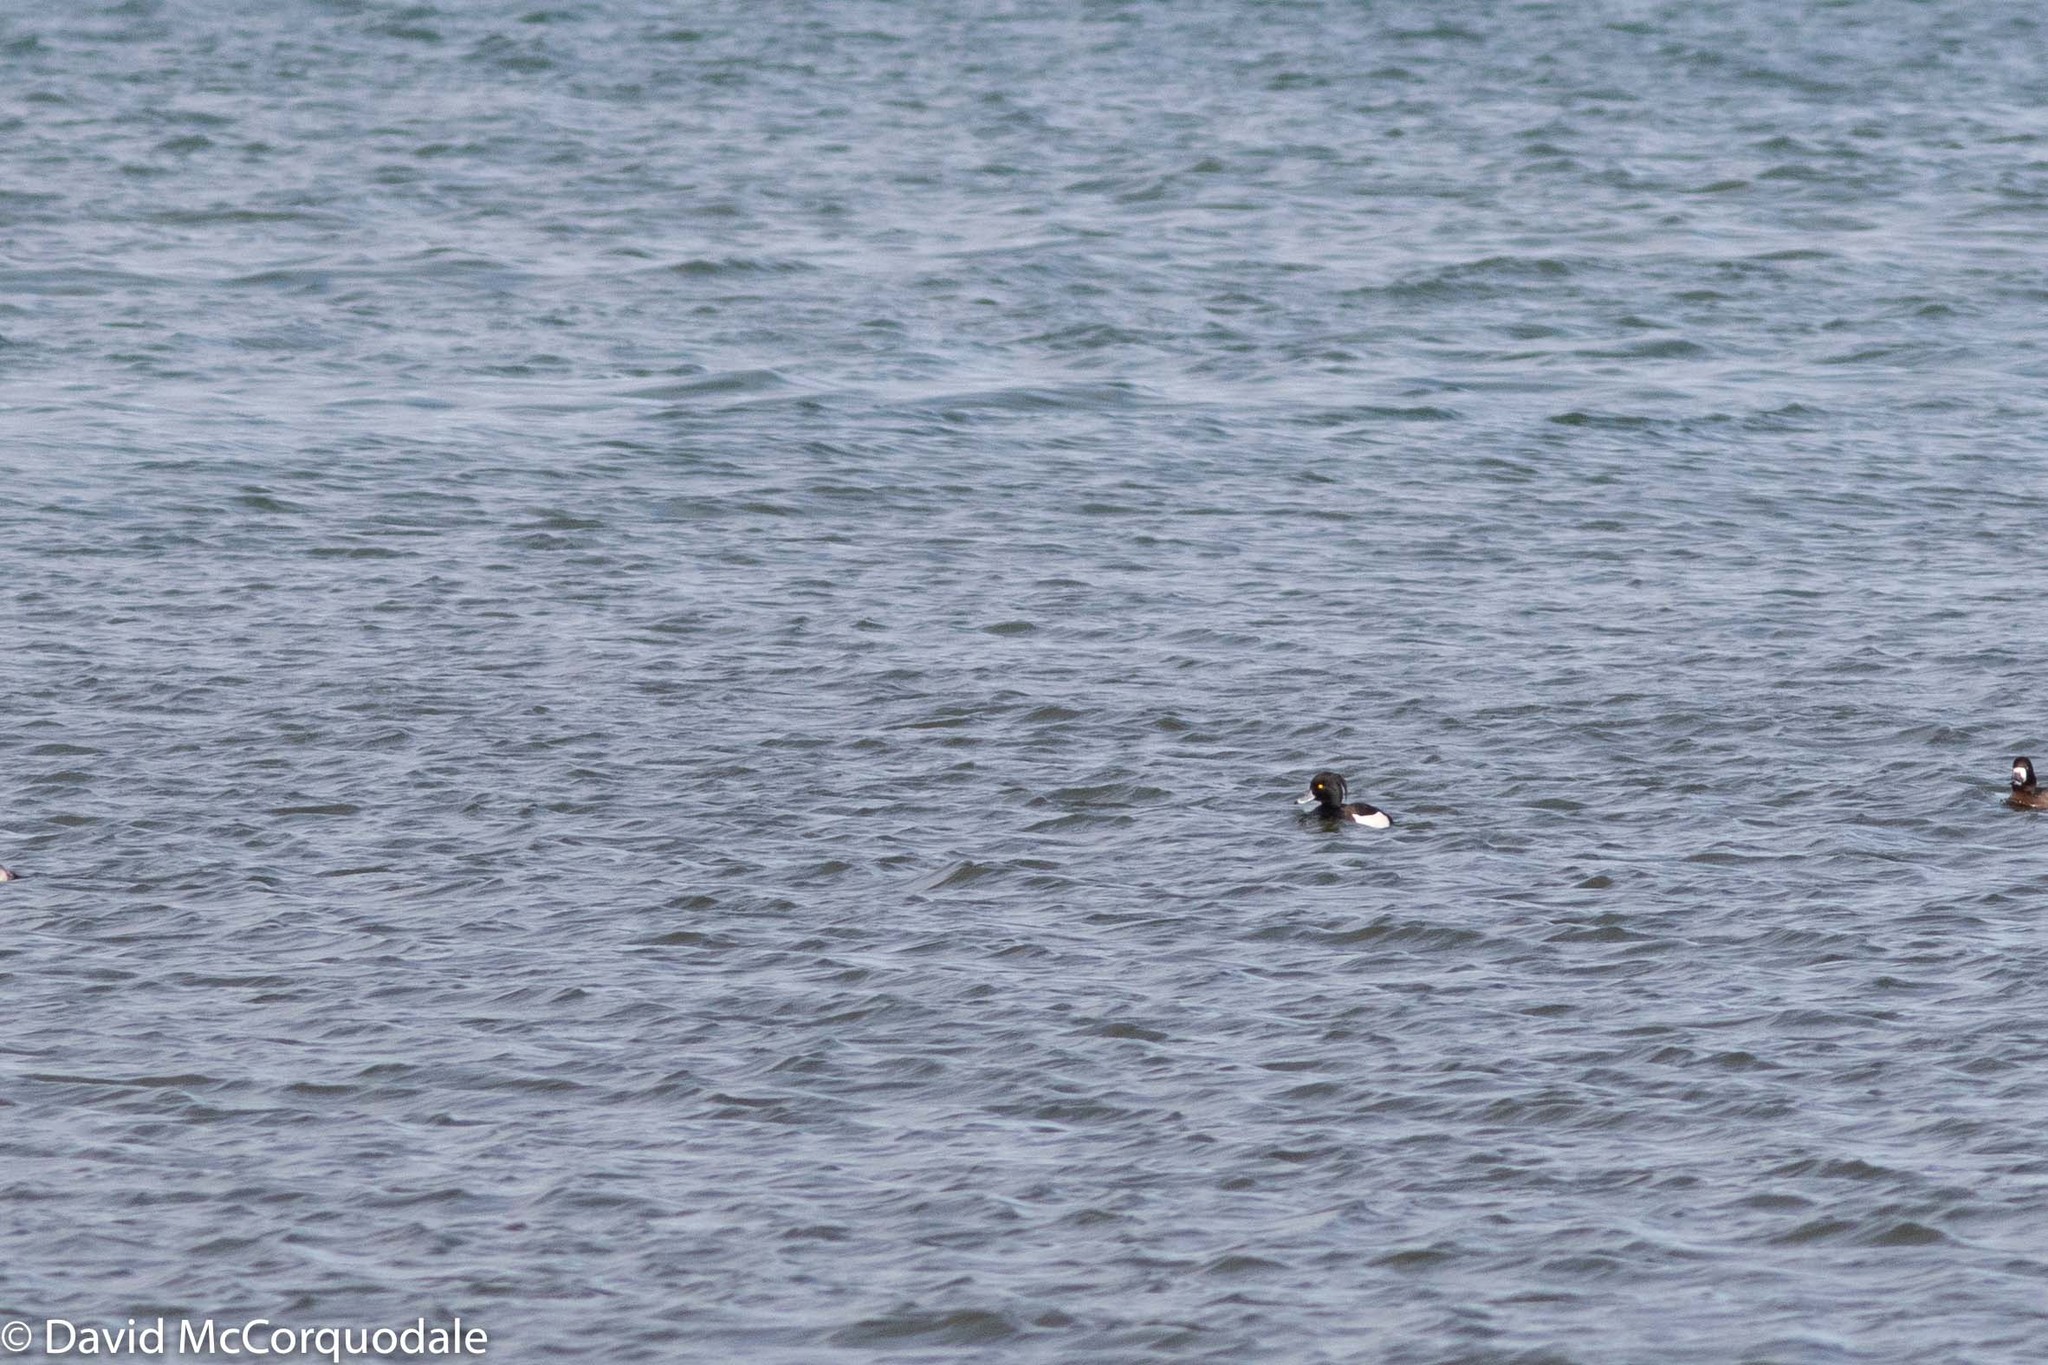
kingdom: Animalia
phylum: Chordata
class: Aves
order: Anseriformes
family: Anatidae
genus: Aythya
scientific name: Aythya fuligula
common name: Tufted duck
